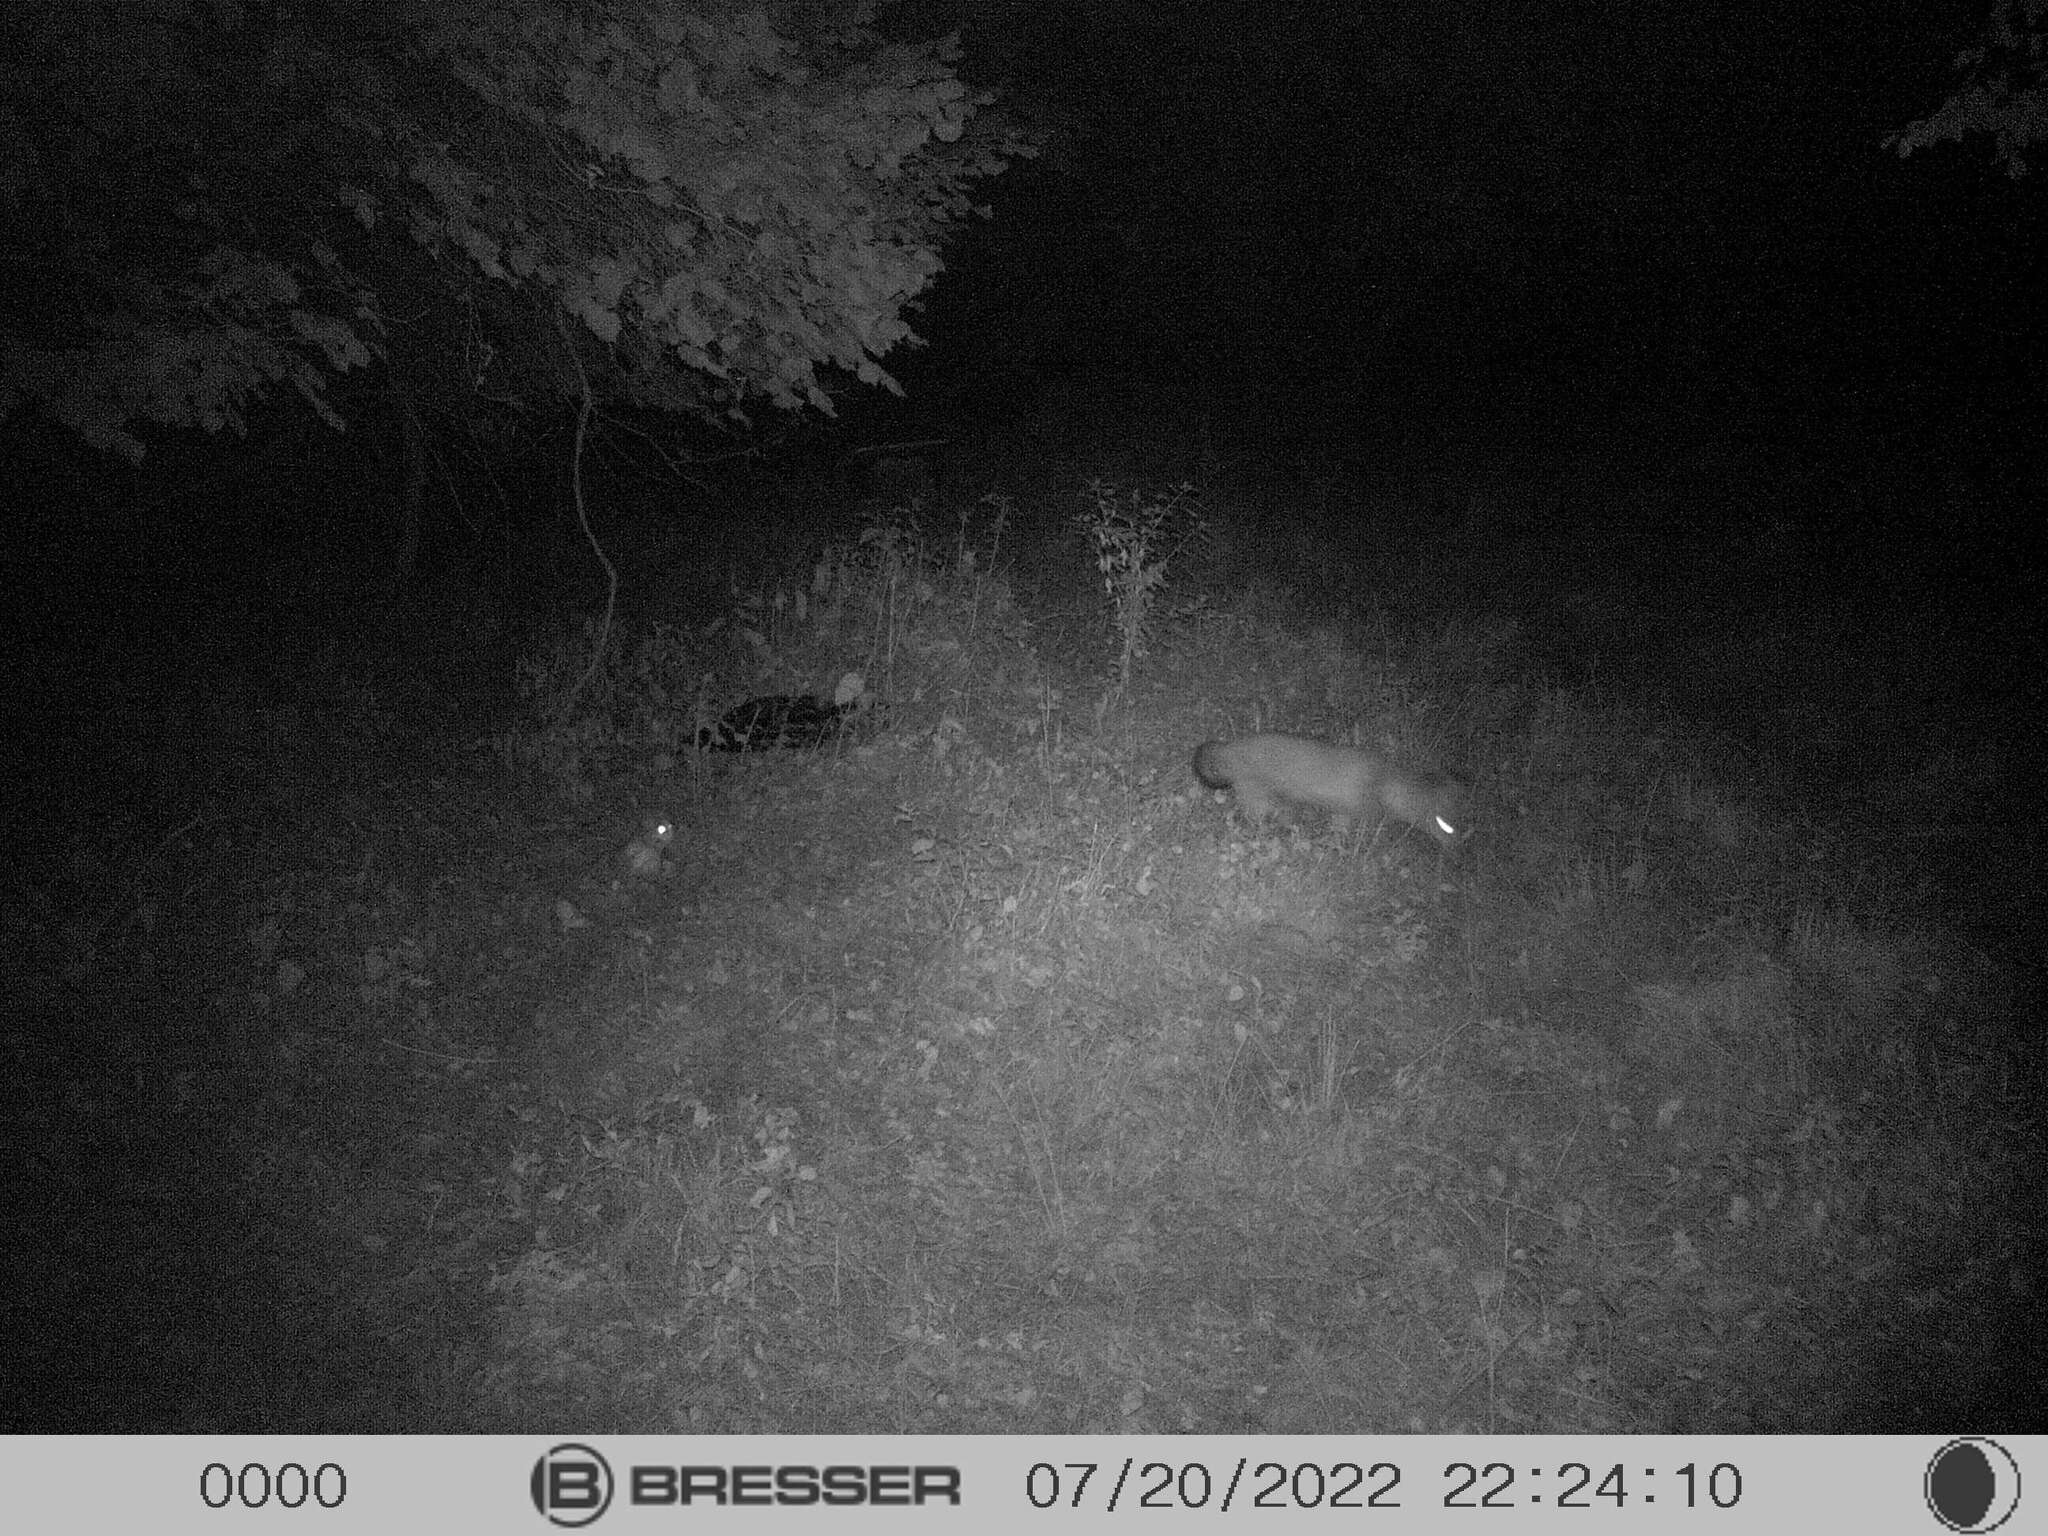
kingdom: Animalia
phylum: Chordata
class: Mammalia
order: Carnivora
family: Canidae
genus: Vulpes
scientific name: Vulpes vulpes
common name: Red fox
